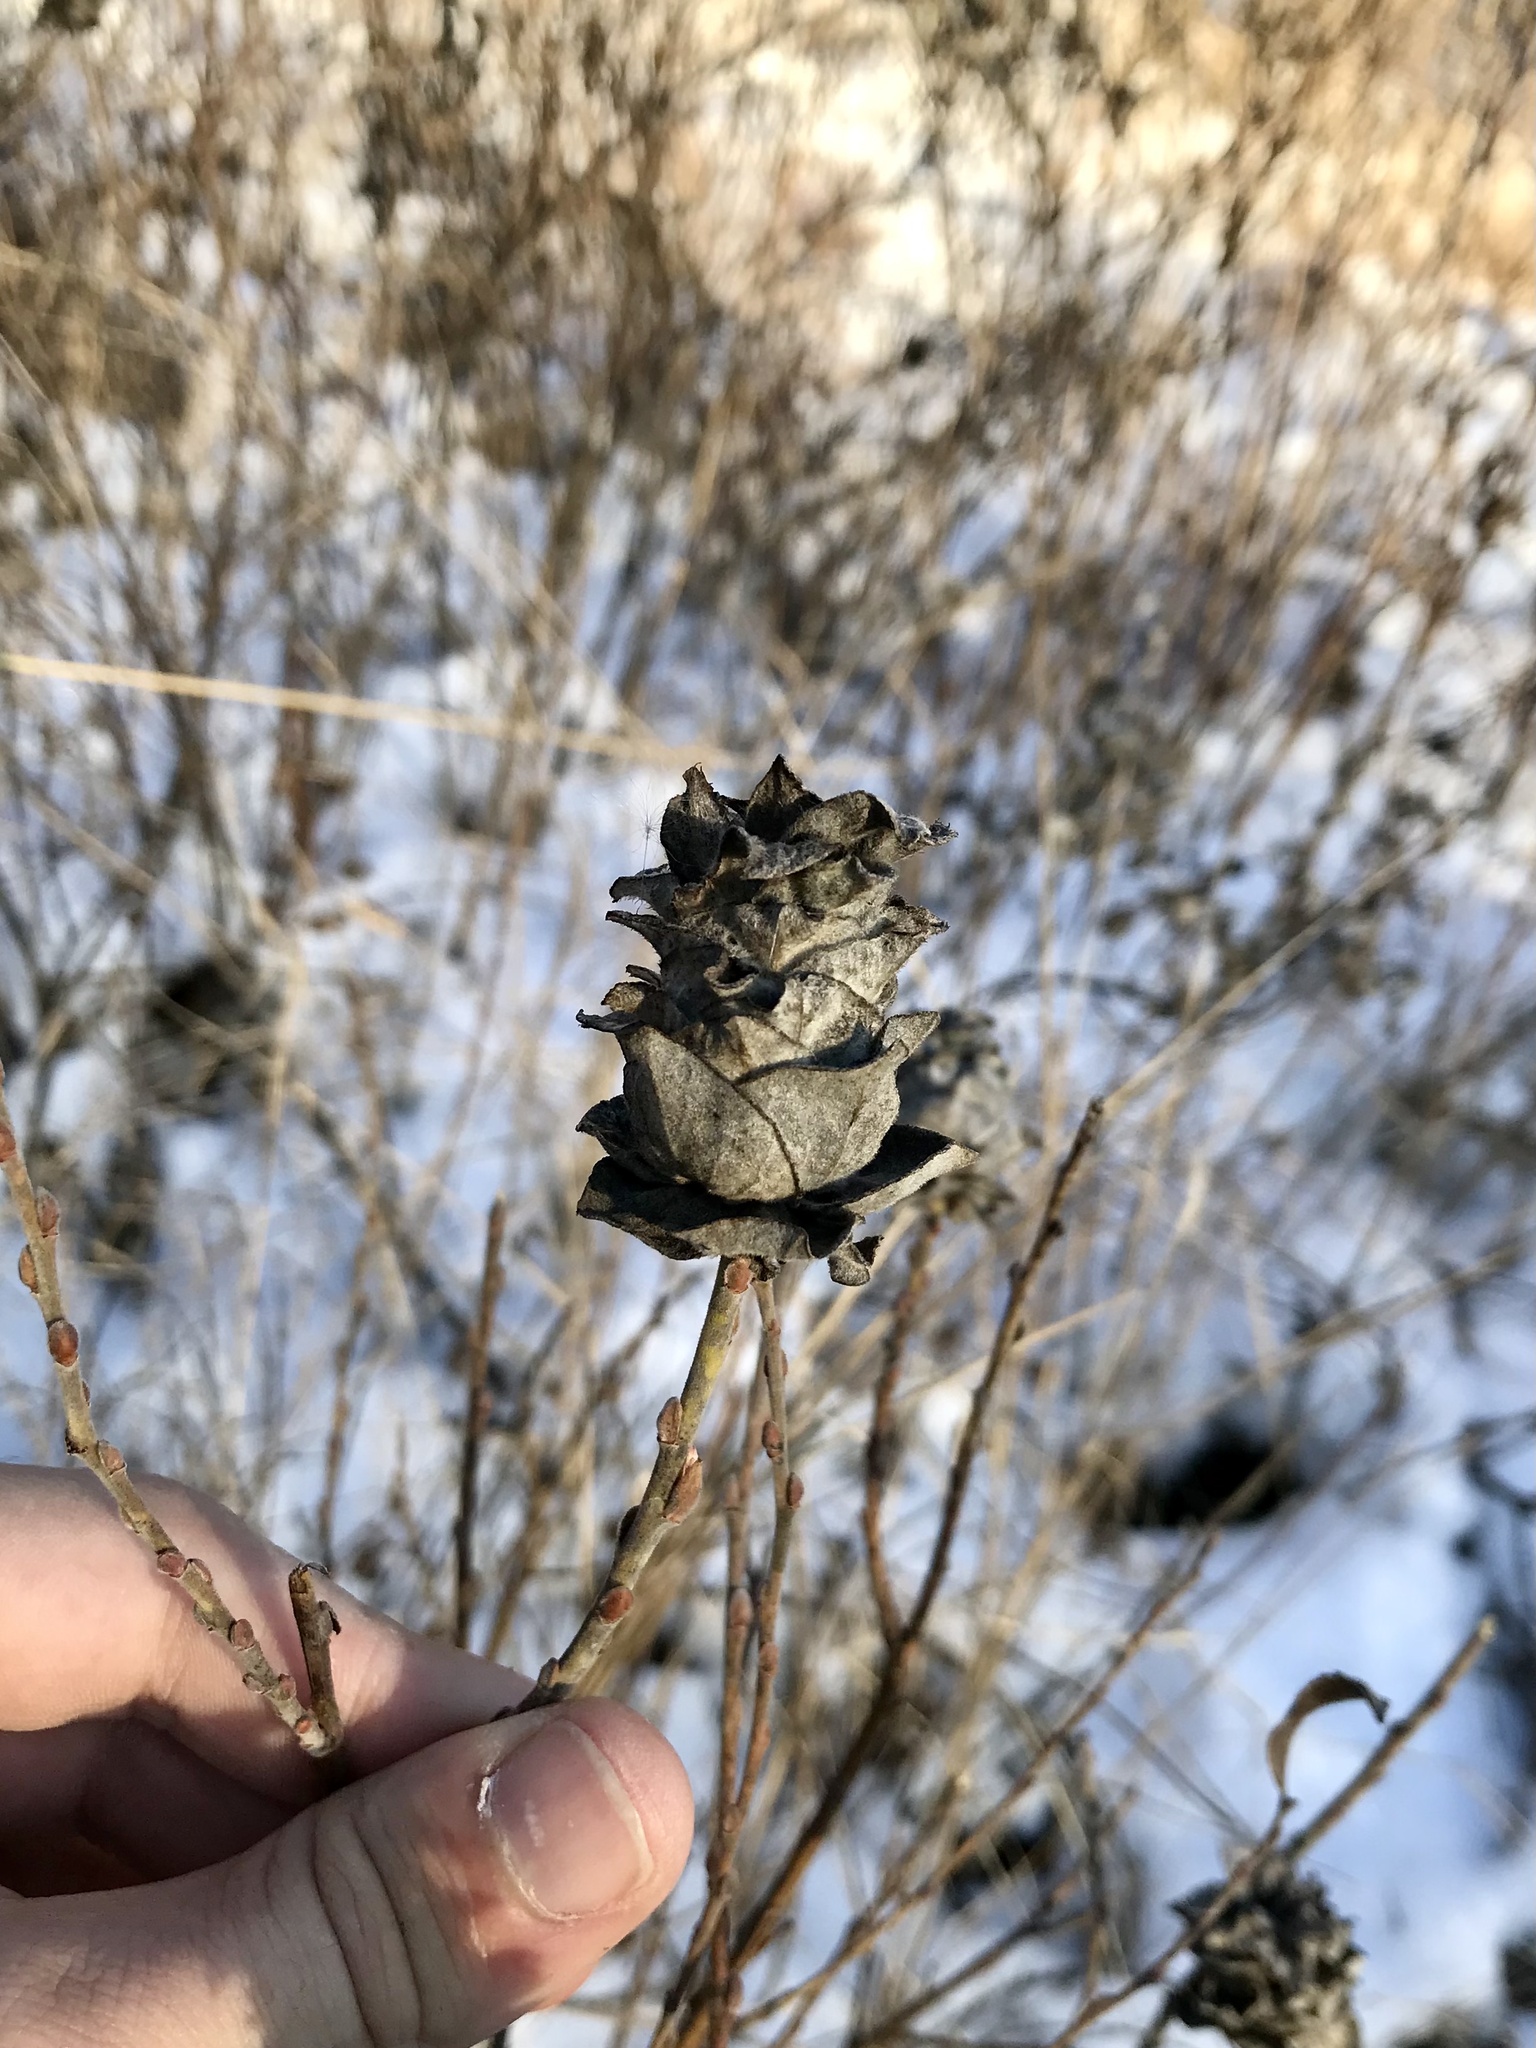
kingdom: Animalia
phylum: Arthropoda
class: Insecta
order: Diptera
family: Cecidomyiidae
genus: Rabdophaga
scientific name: Rabdophaga saliciscoryloides
